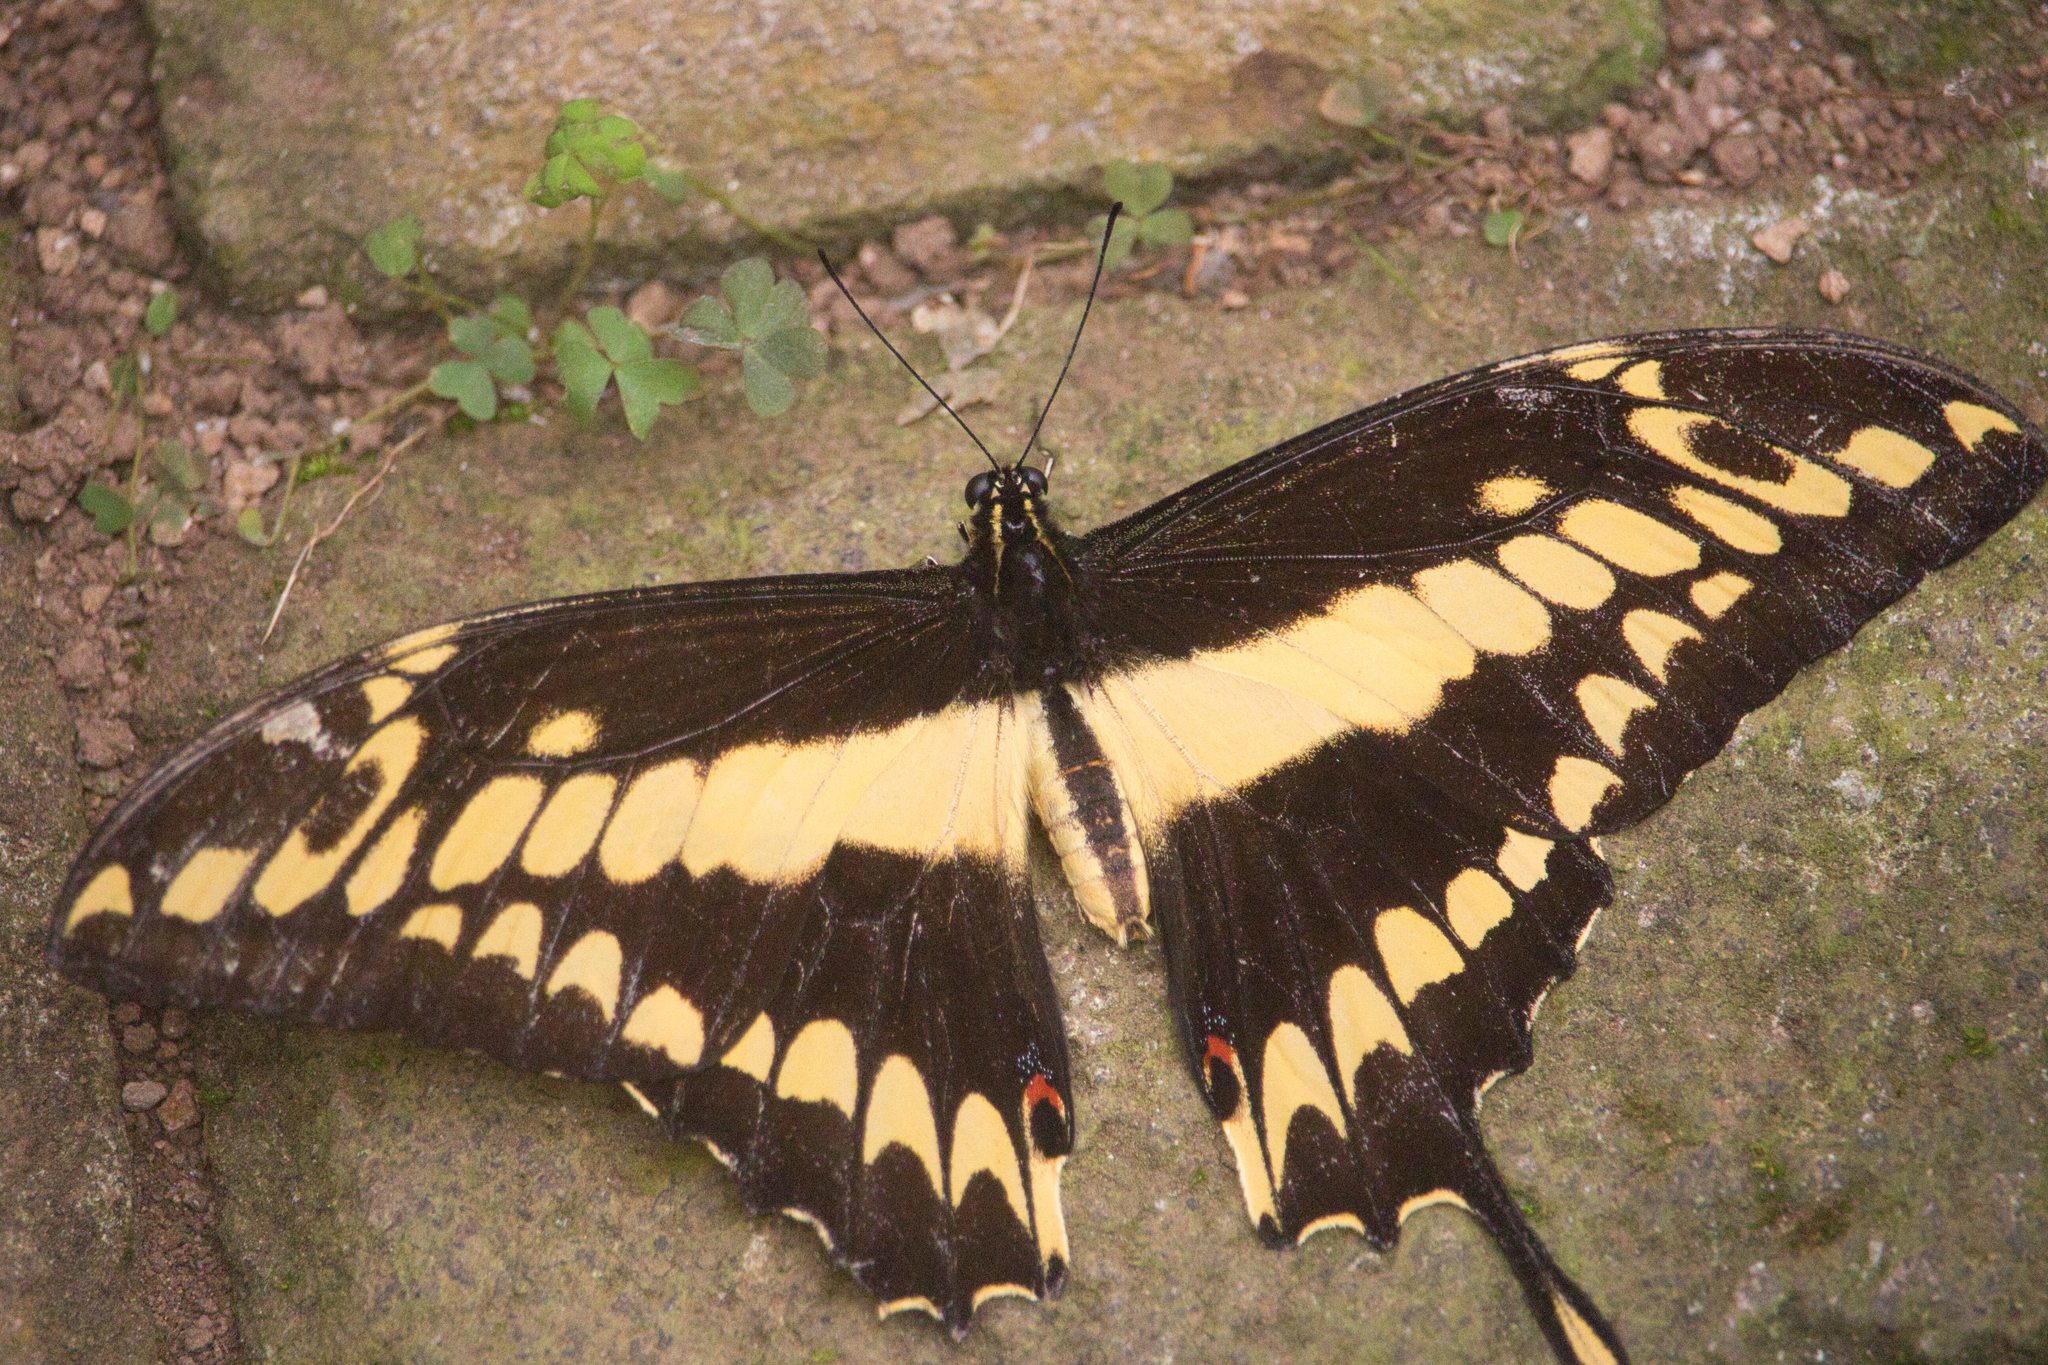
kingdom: Animalia
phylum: Arthropoda
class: Insecta
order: Lepidoptera
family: Papilionidae
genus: Papilio
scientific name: Papilio thoas
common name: King swallowtail
